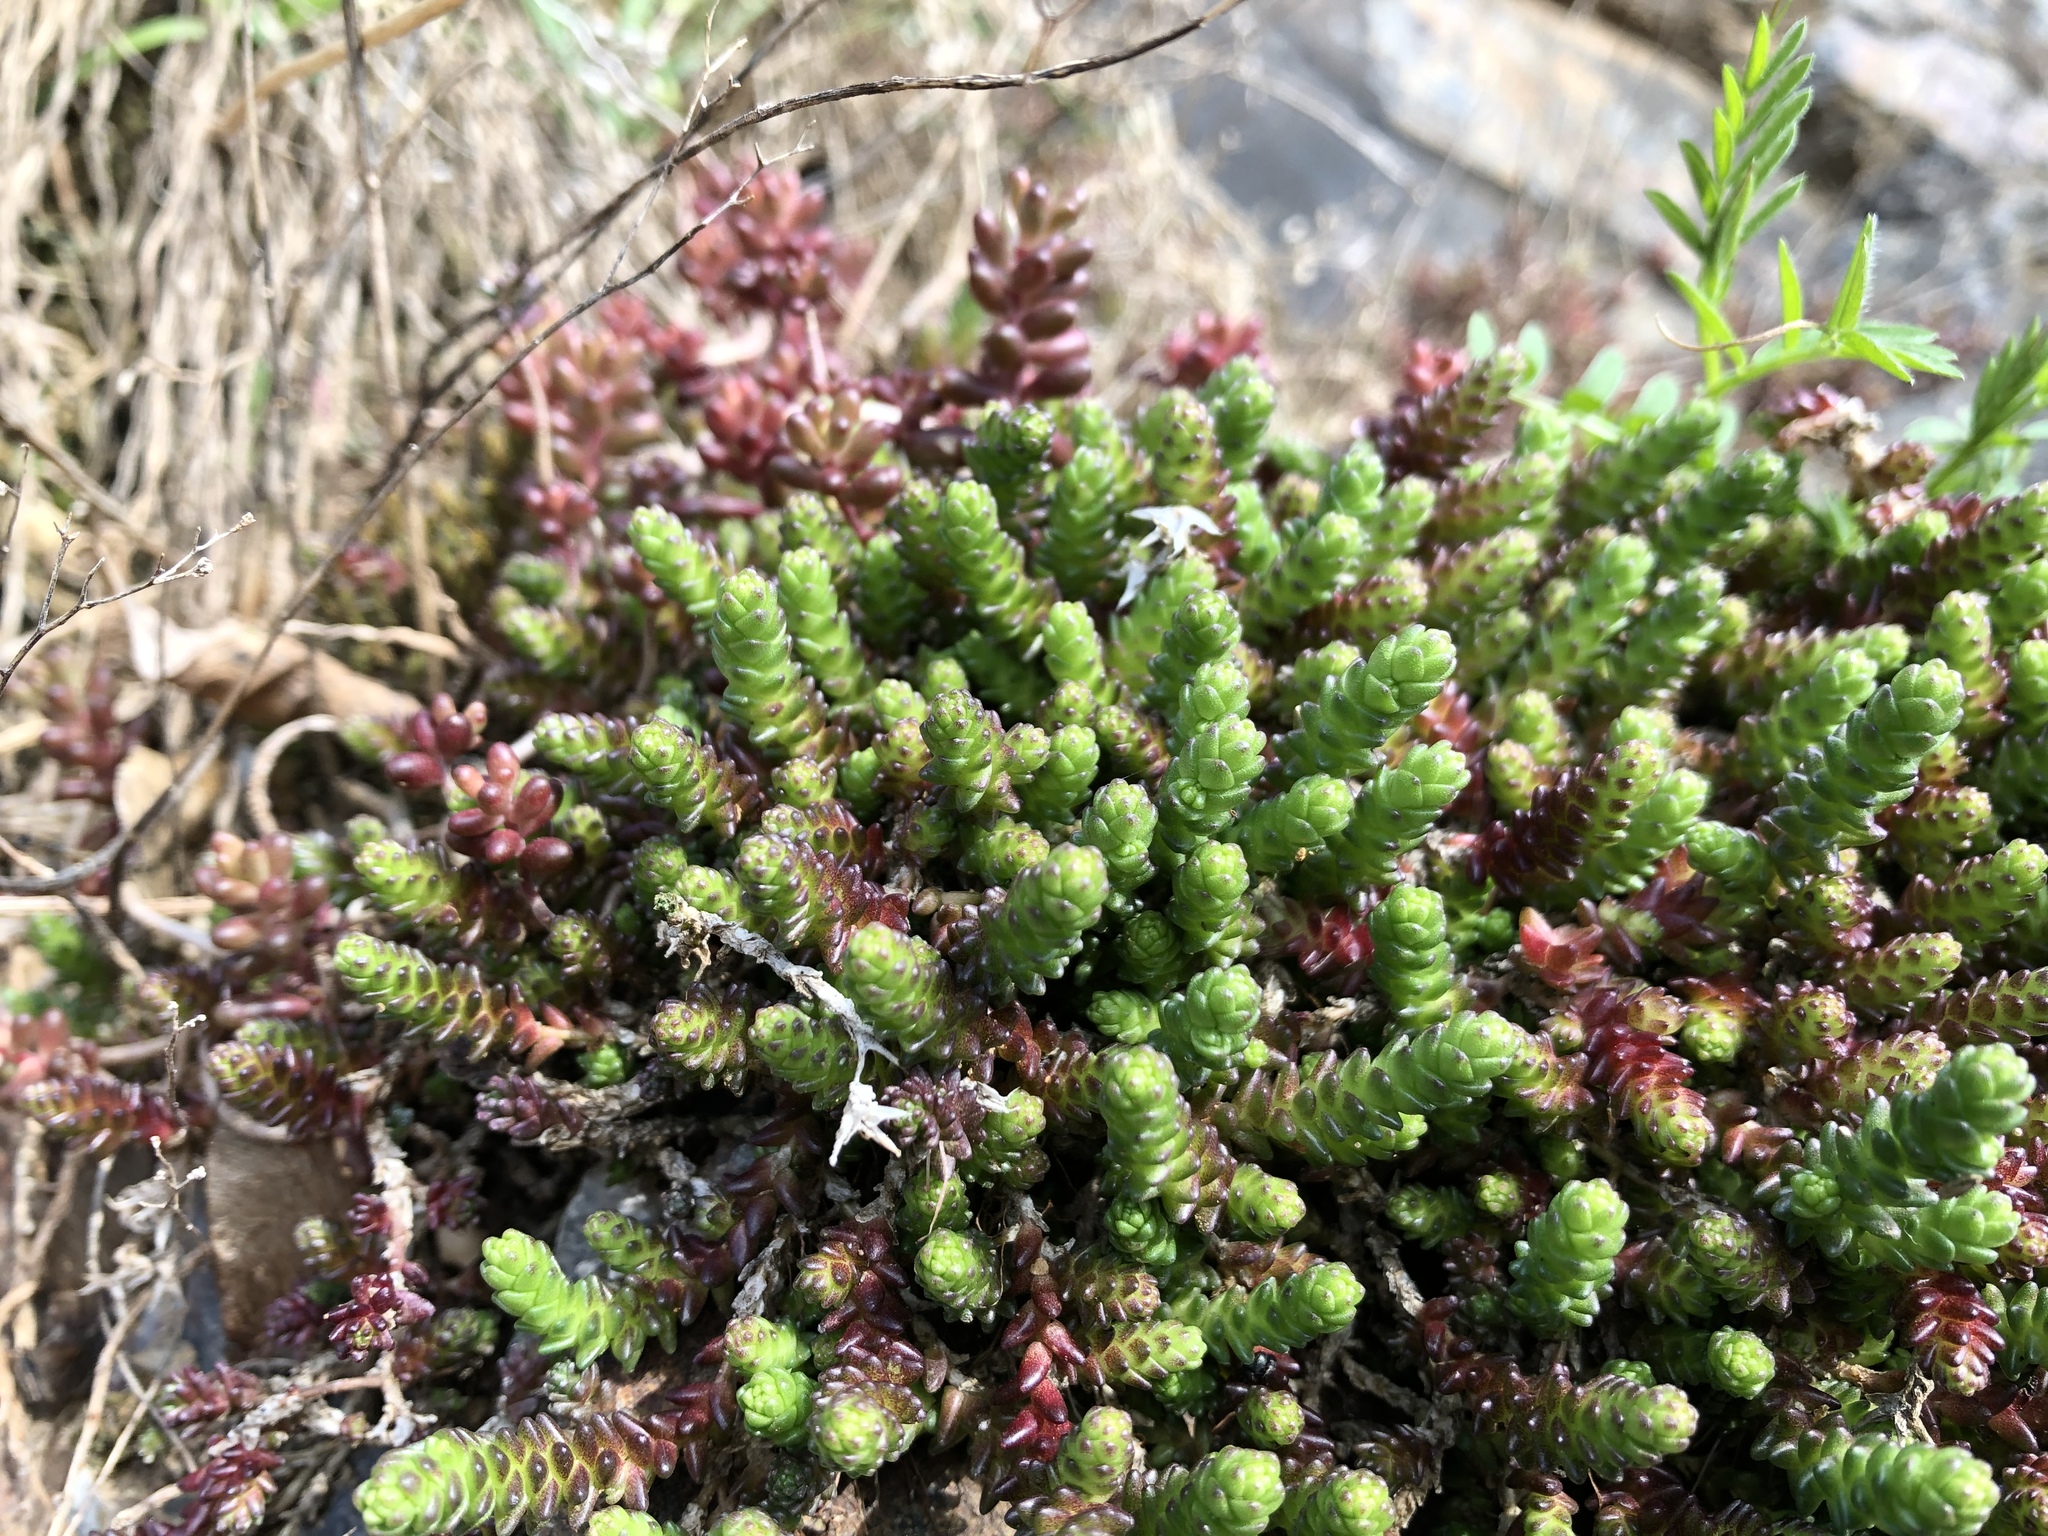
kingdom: Plantae
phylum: Tracheophyta
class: Magnoliopsida
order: Saxifragales
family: Crassulaceae
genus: Sedum
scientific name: Sedum acre
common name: Biting stonecrop
